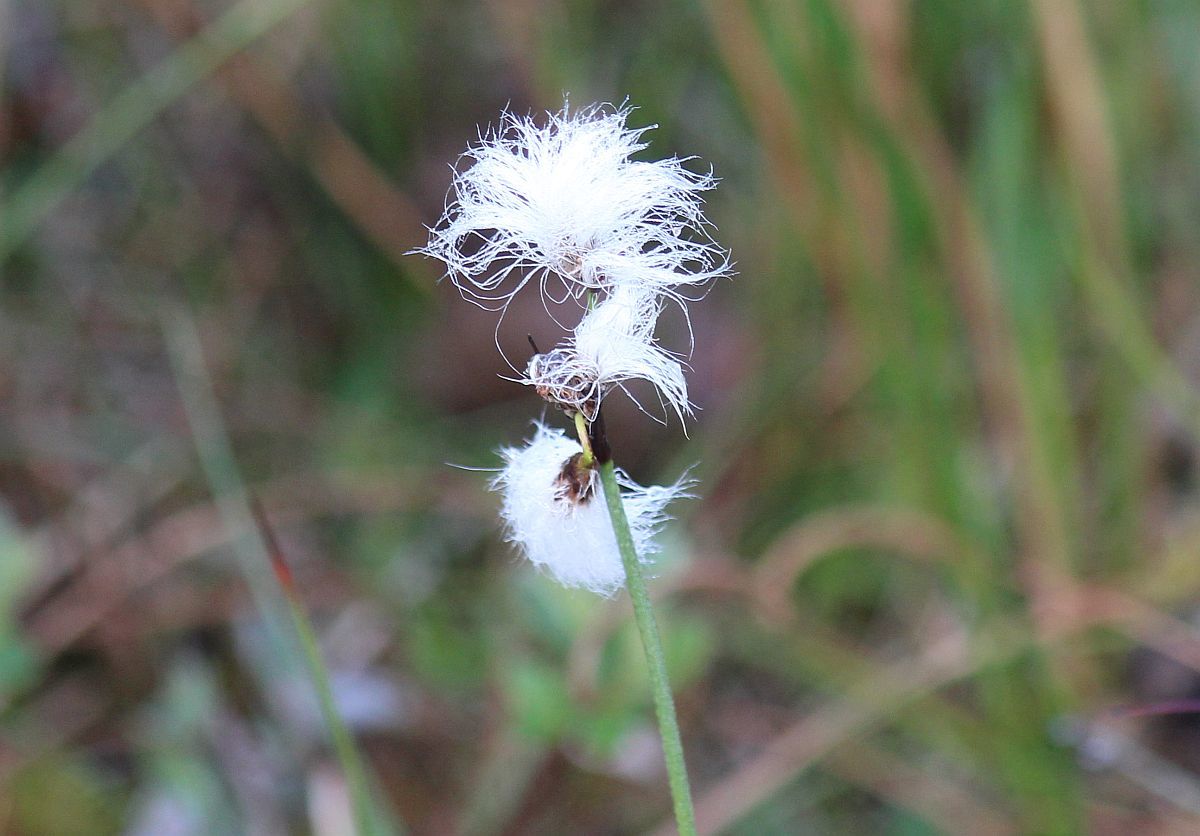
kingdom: Plantae
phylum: Tracheophyta
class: Liliopsida
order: Poales
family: Cyperaceae
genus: Eriophorum
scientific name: Eriophorum angustifolium
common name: Common cottongrass
